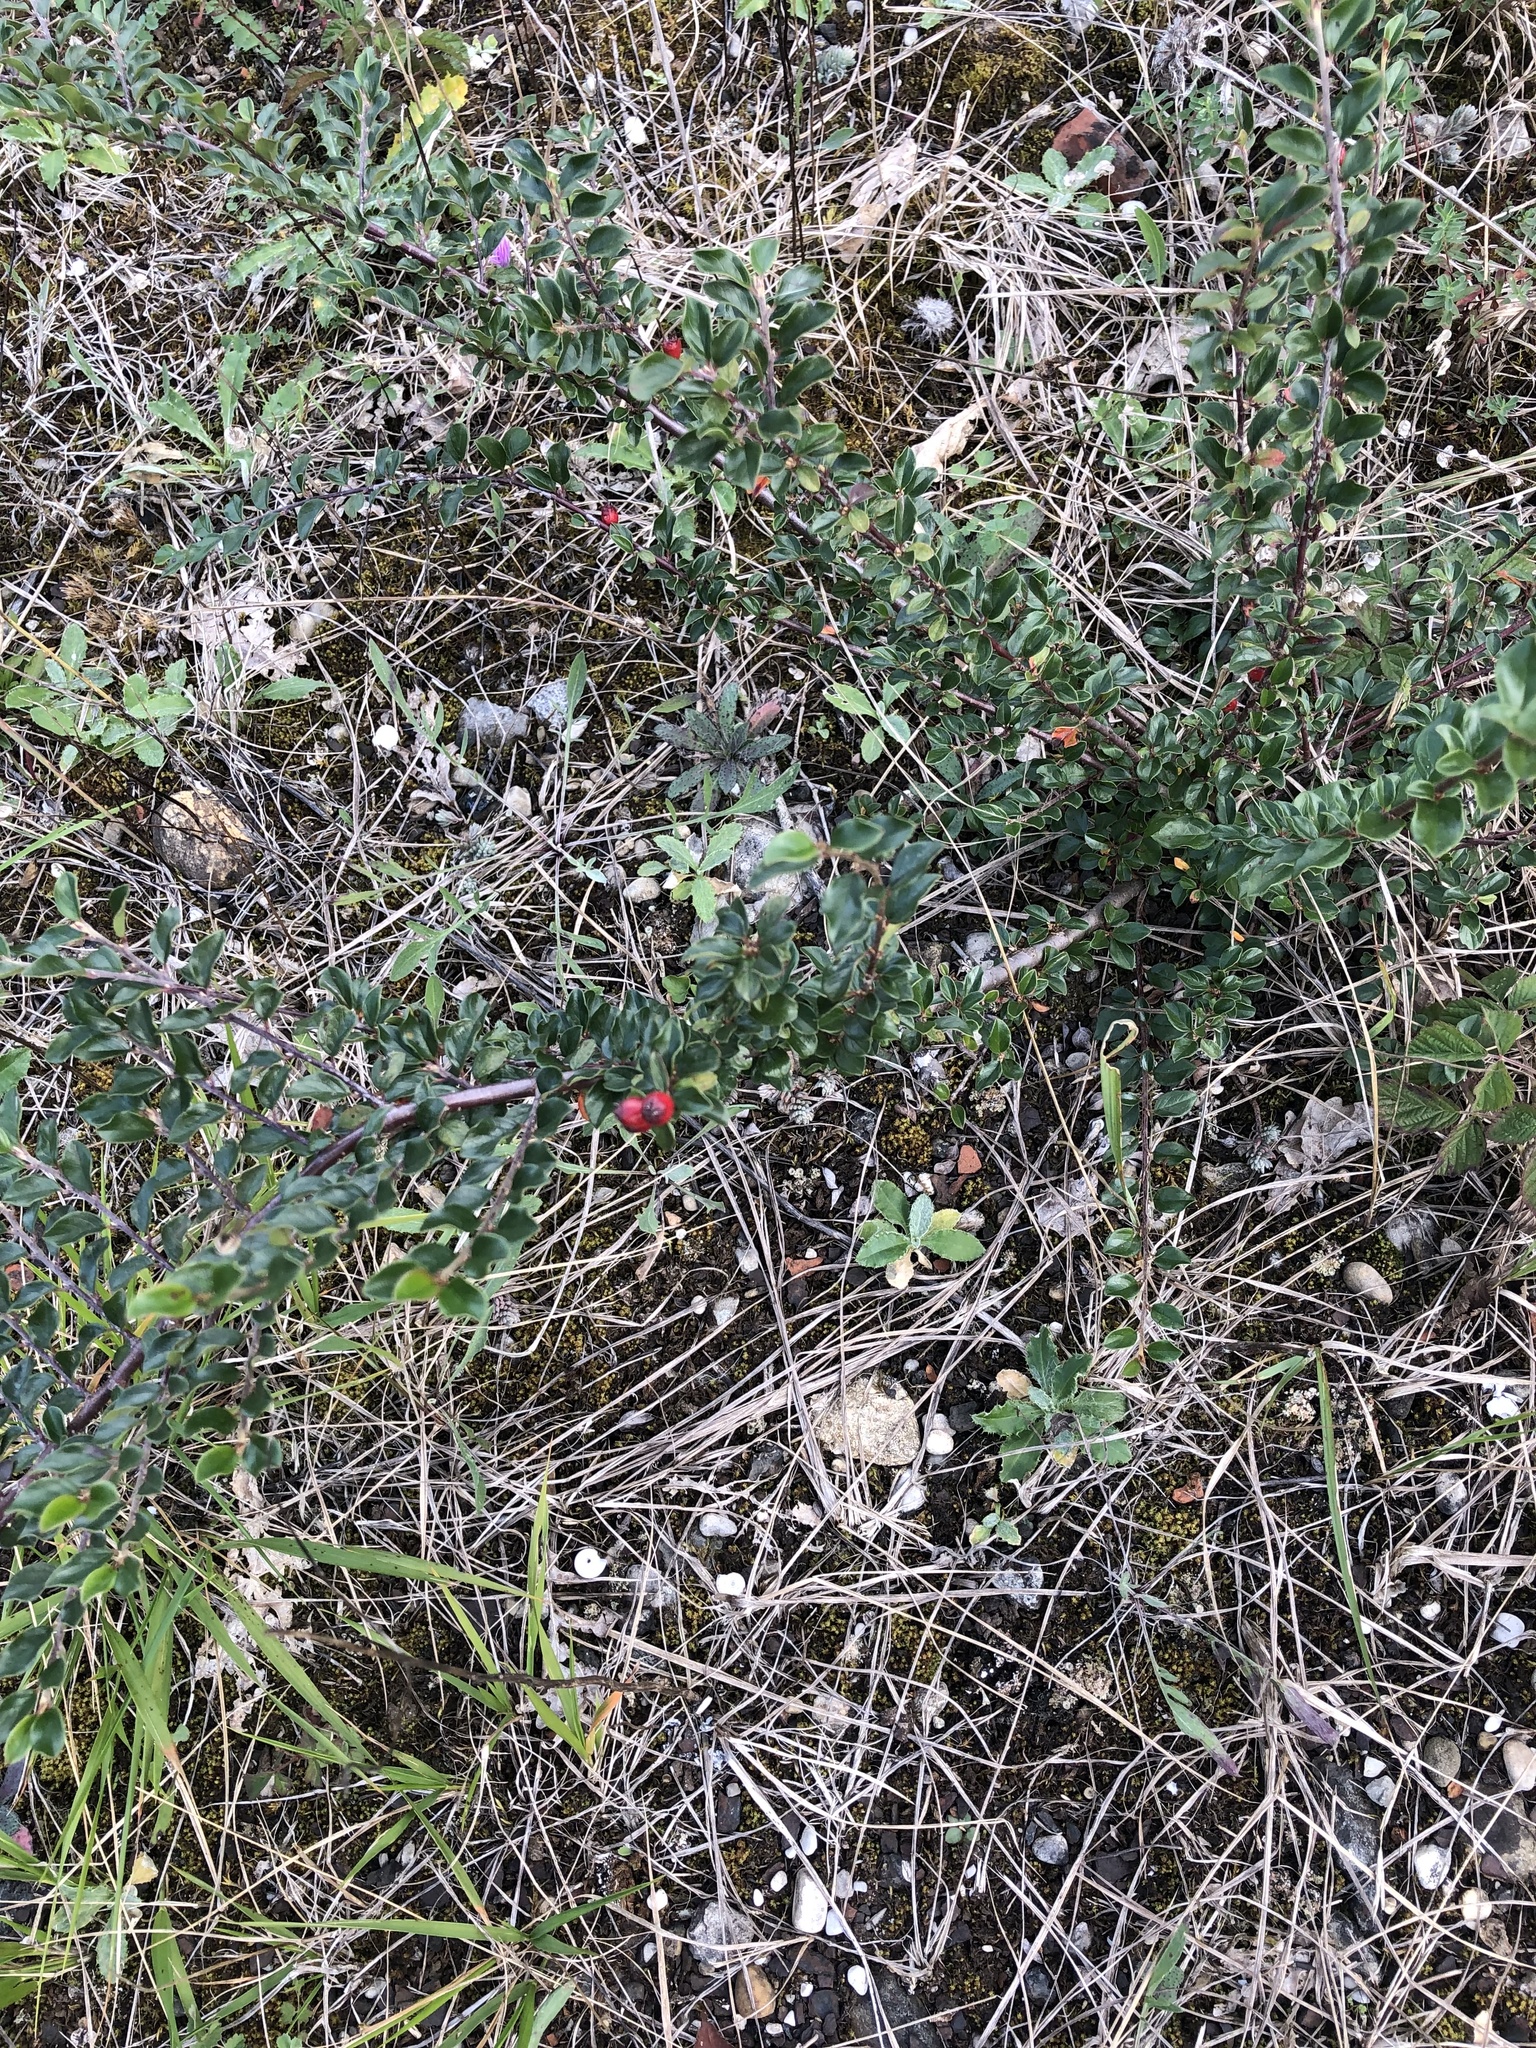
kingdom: Plantae
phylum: Tracheophyta
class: Magnoliopsida
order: Rosales
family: Rosaceae
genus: Cotoneaster
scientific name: Cotoneaster ascendens
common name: Ascending cotoneaster
